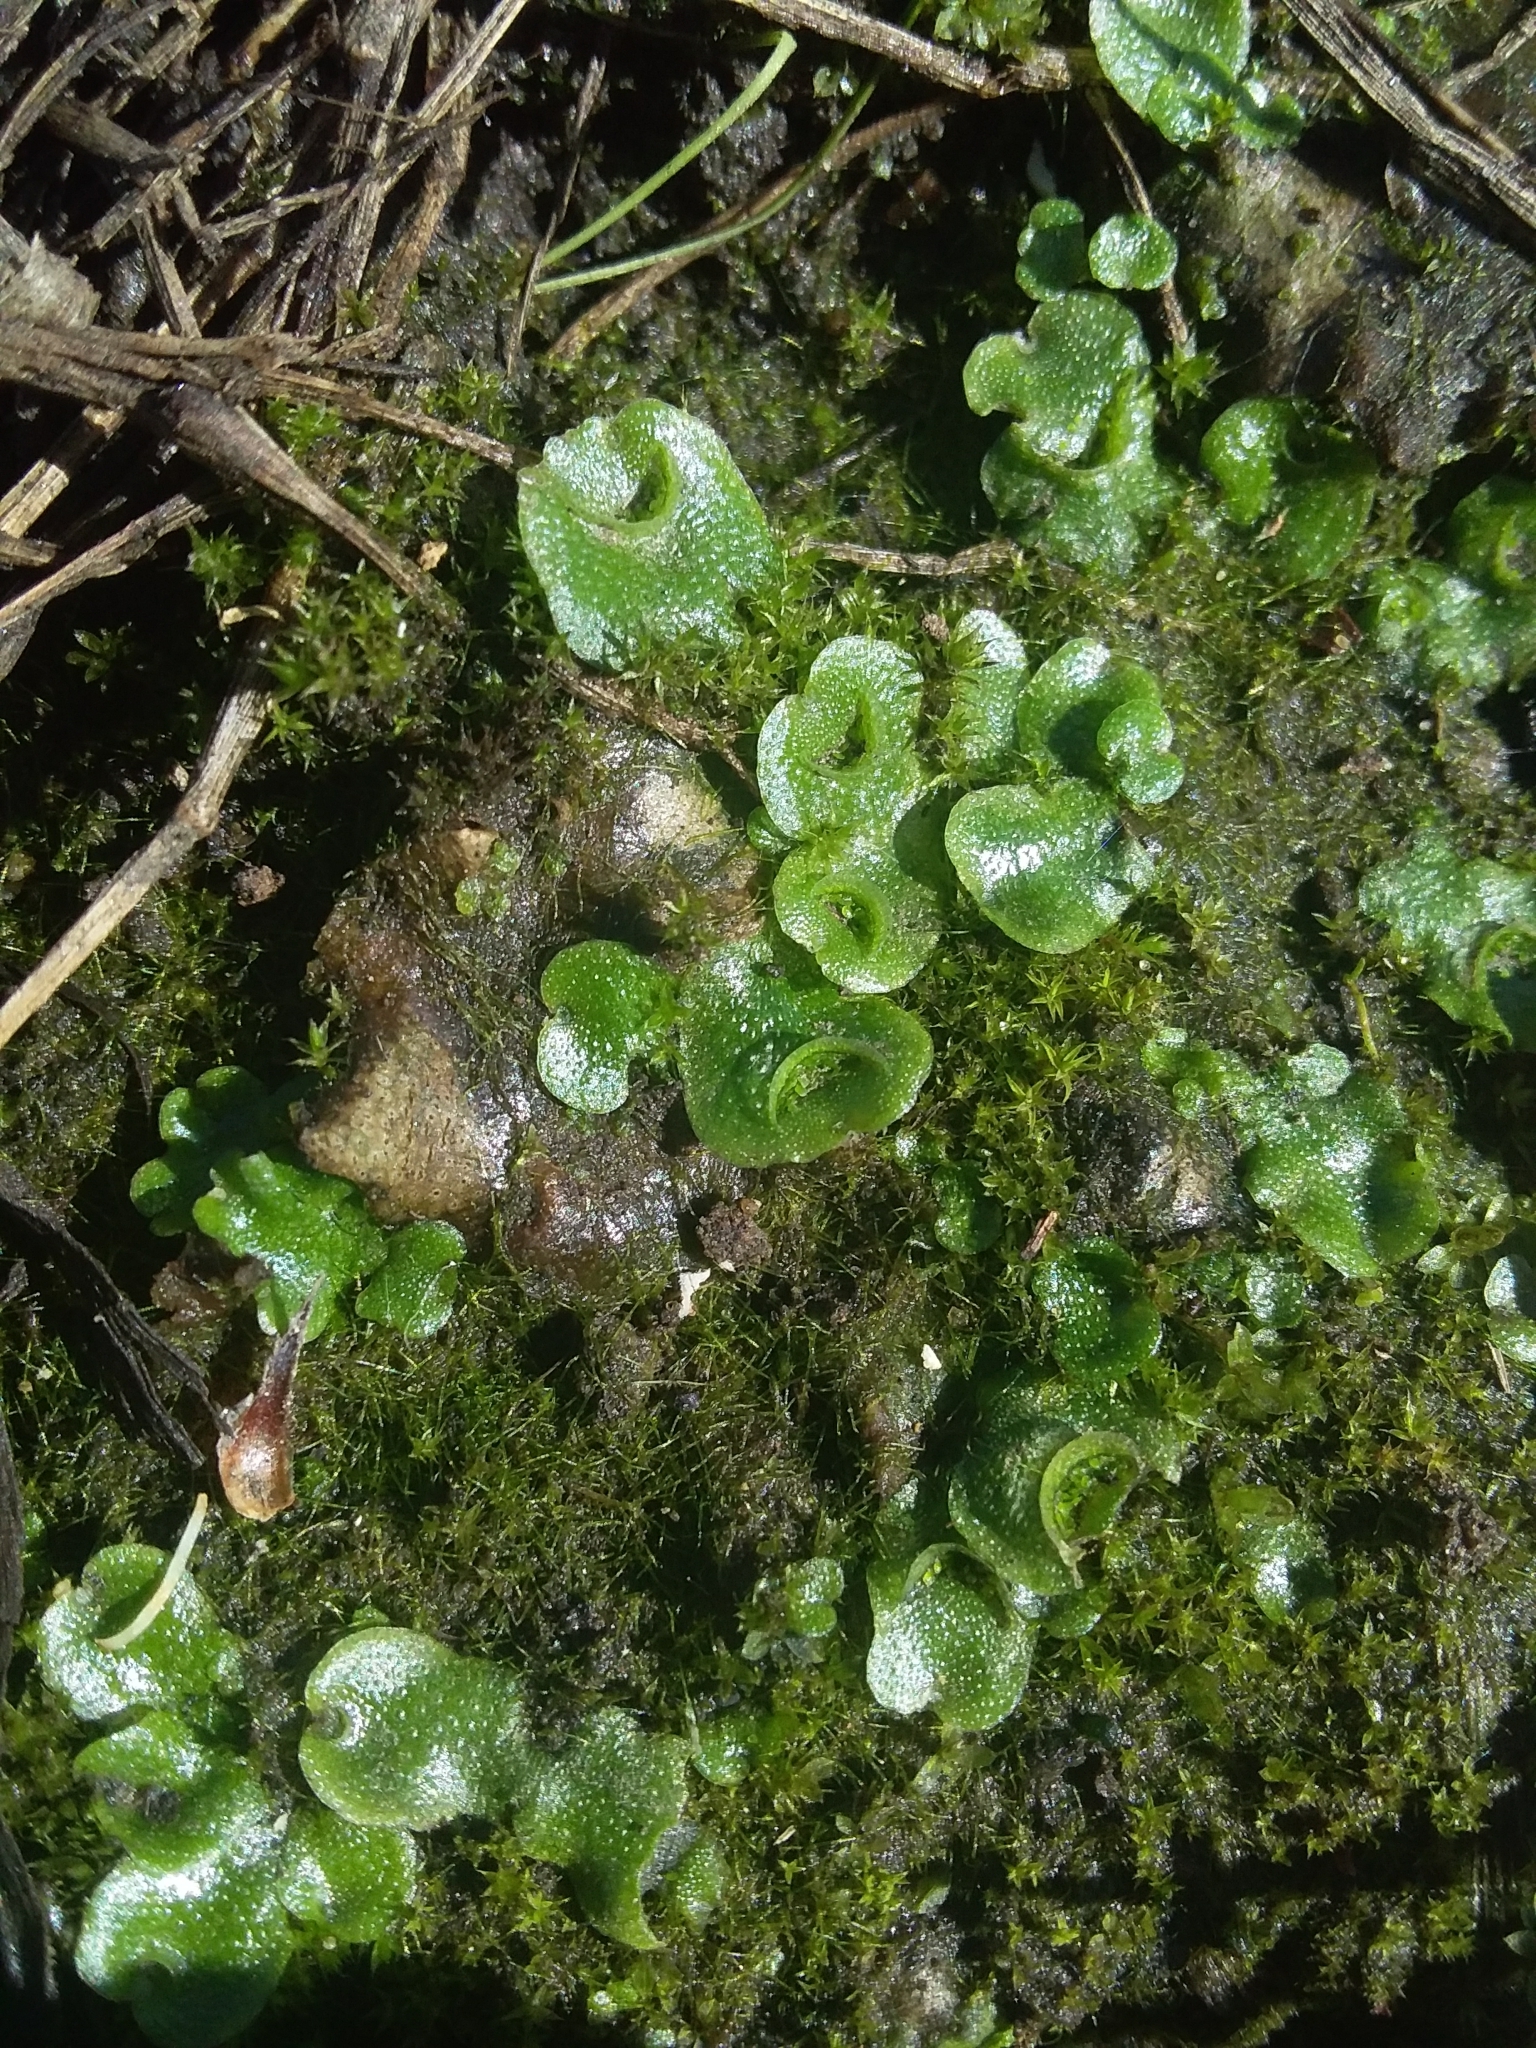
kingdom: Plantae
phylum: Marchantiophyta
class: Marchantiopsida
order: Lunulariales
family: Lunulariaceae
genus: Lunularia
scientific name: Lunularia cruciata
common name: Crescent-cup liverwort
